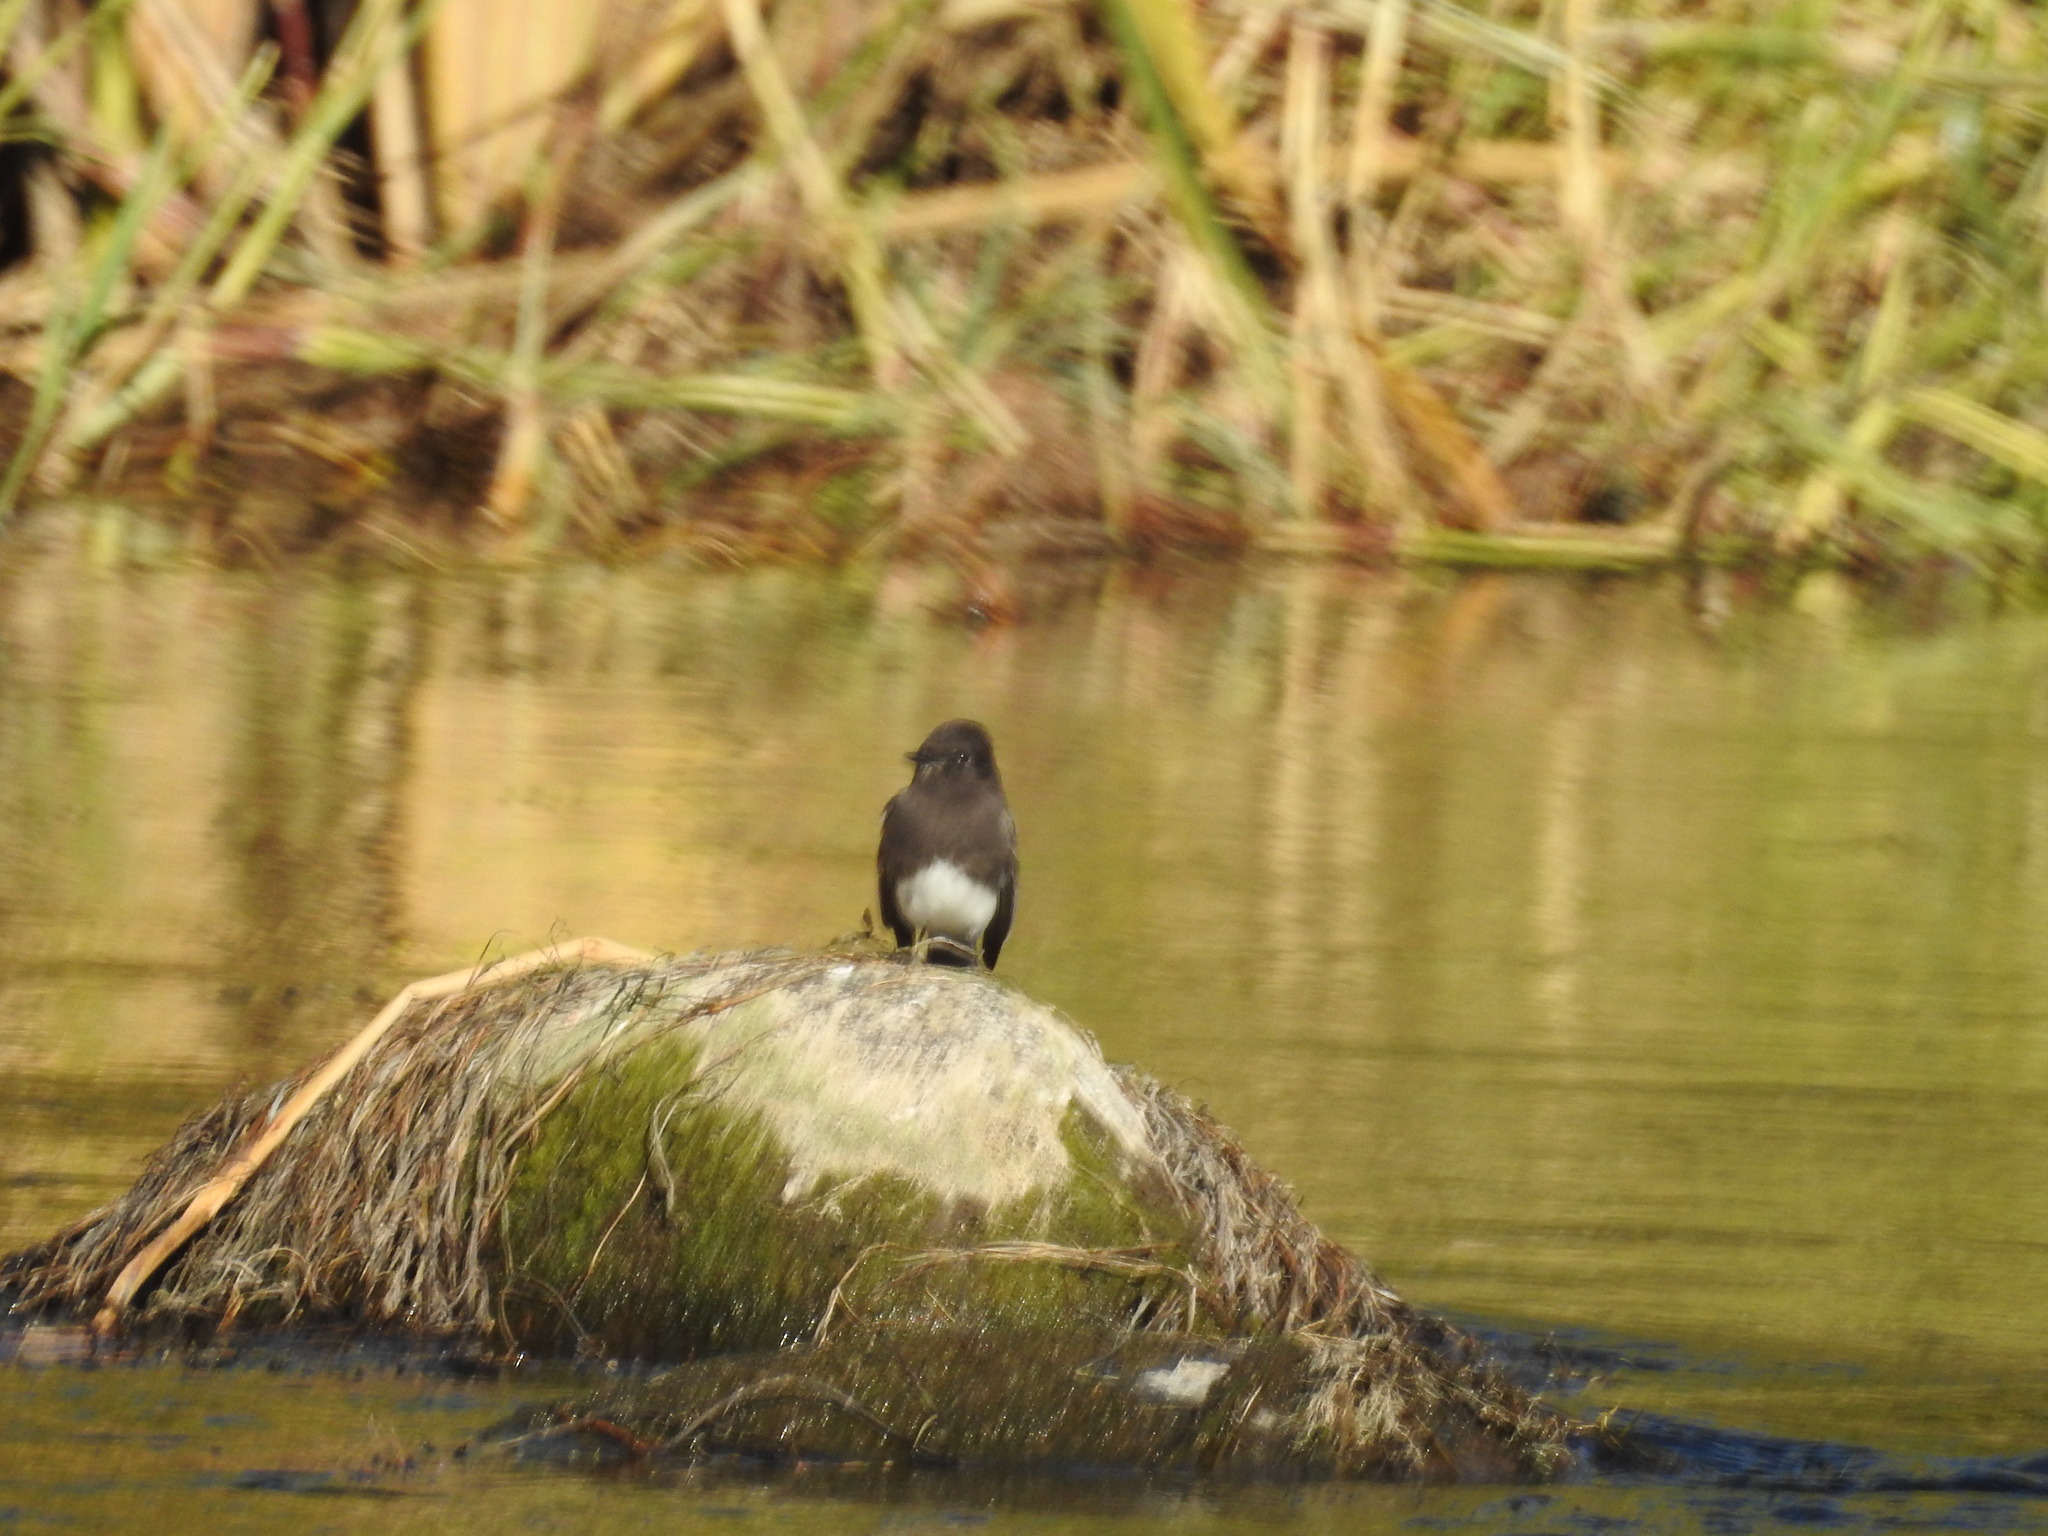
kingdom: Animalia
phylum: Chordata
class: Aves
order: Passeriformes
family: Tyrannidae
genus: Sayornis
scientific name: Sayornis nigricans
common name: Black phoebe
